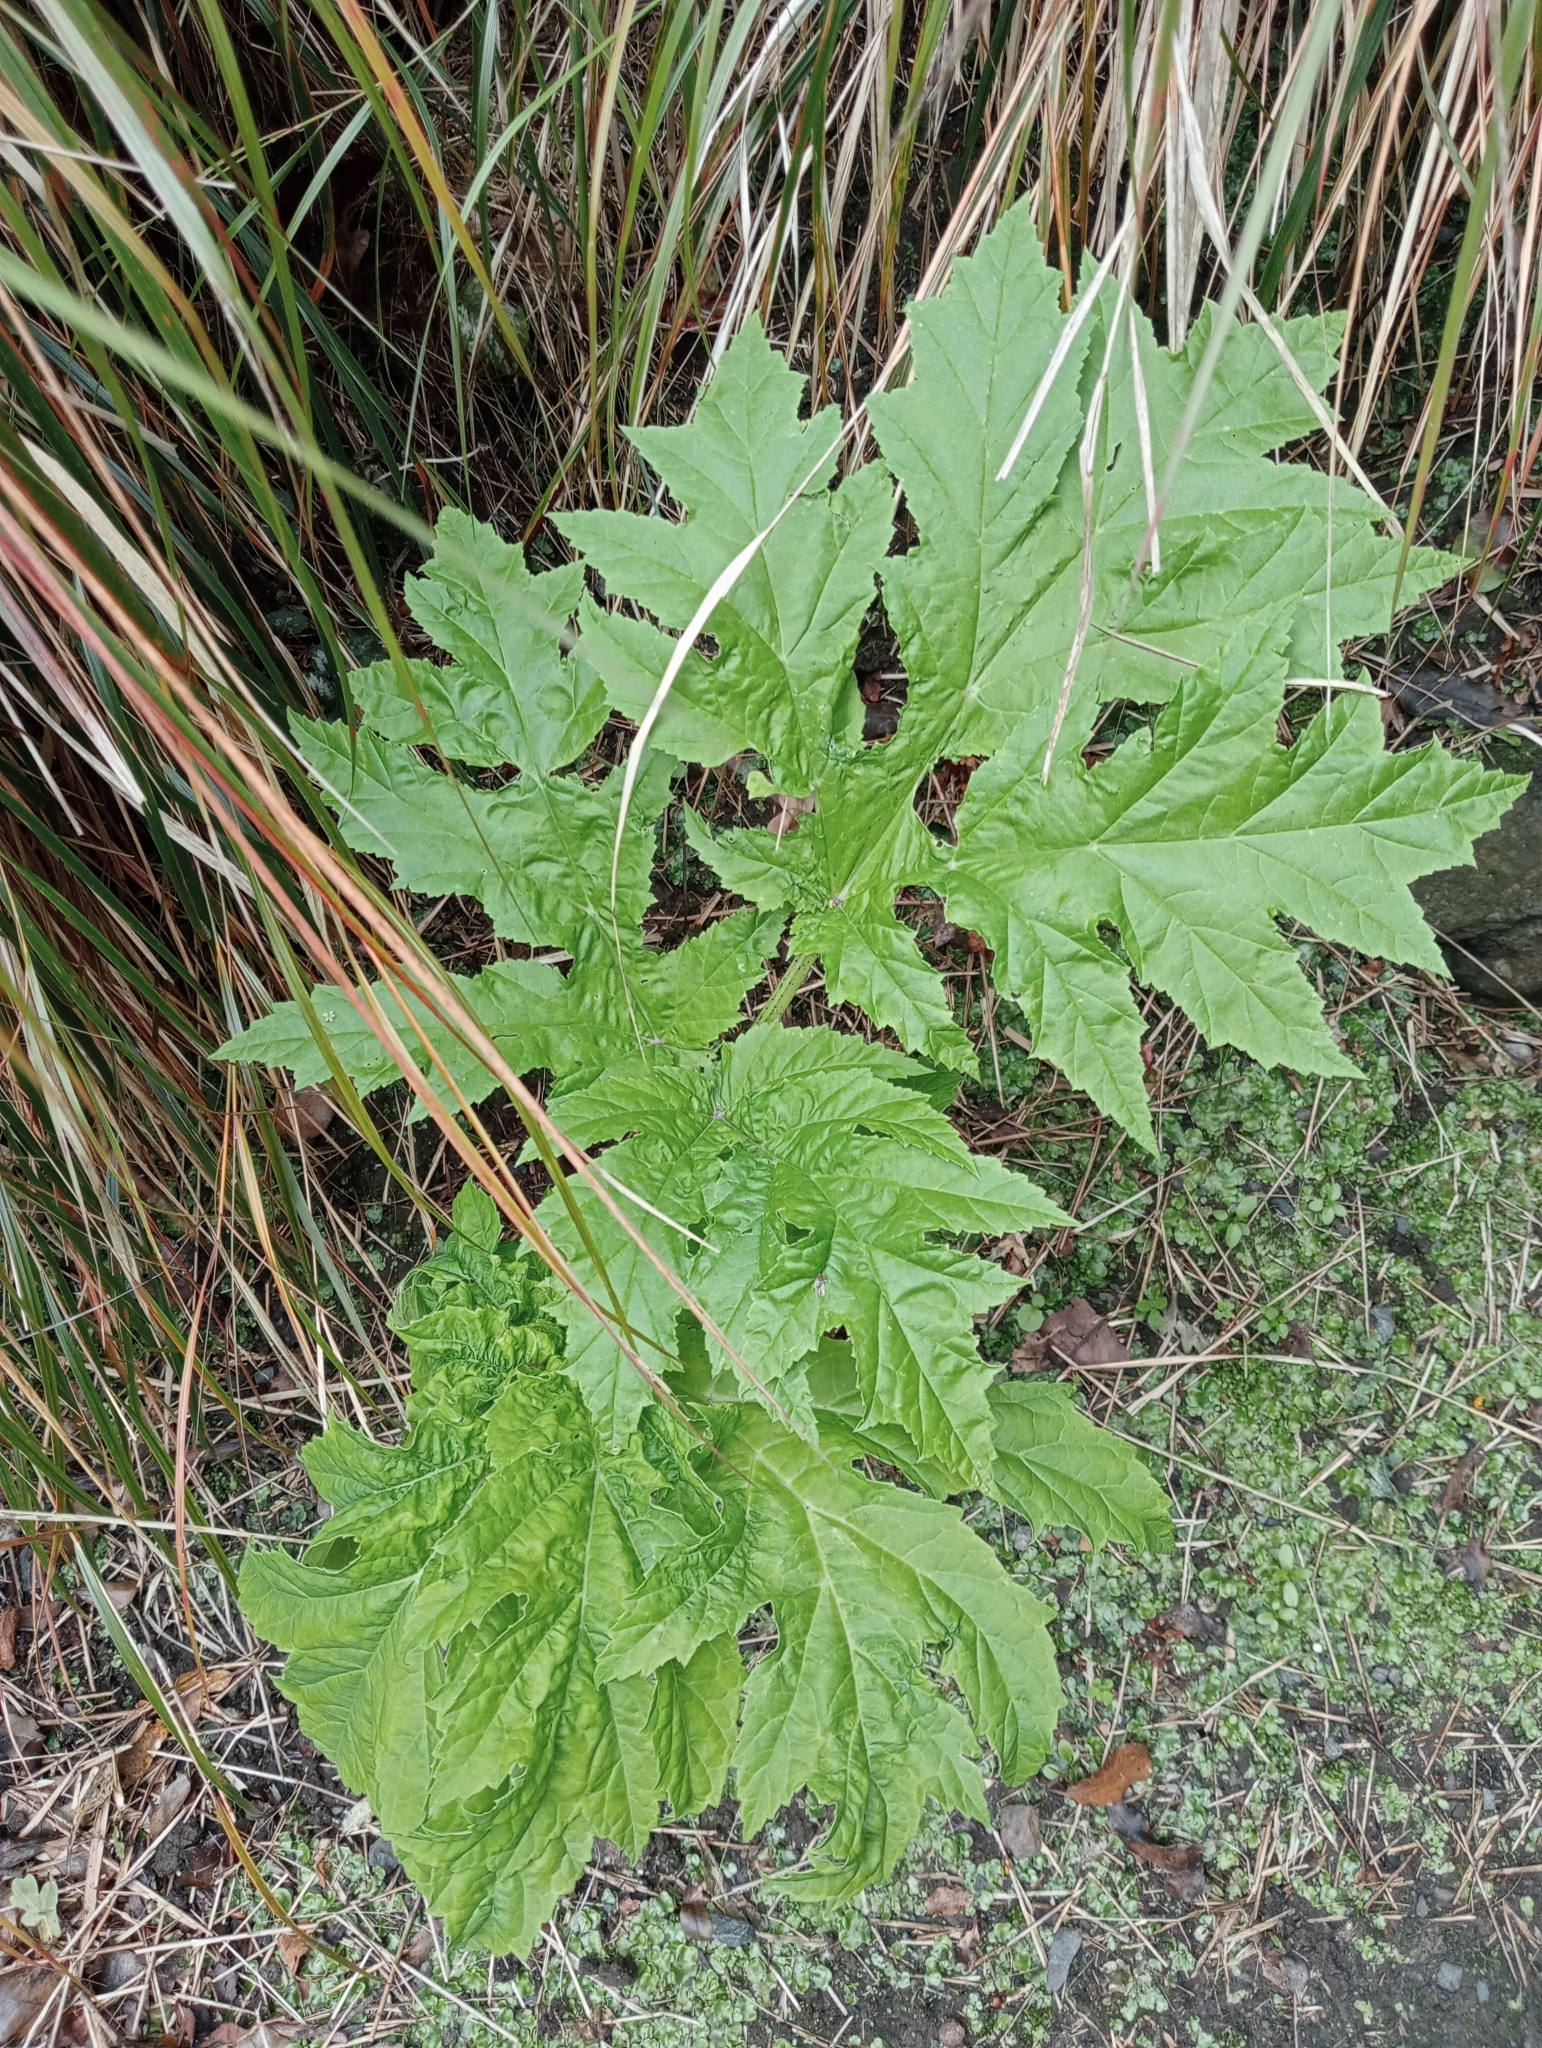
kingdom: Plantae
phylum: Tracheophyta
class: Magnoliopsida
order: Apiales
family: Apiaceae
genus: Heracleum
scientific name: Heracleum mantegazzianum
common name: Giant hogweed
